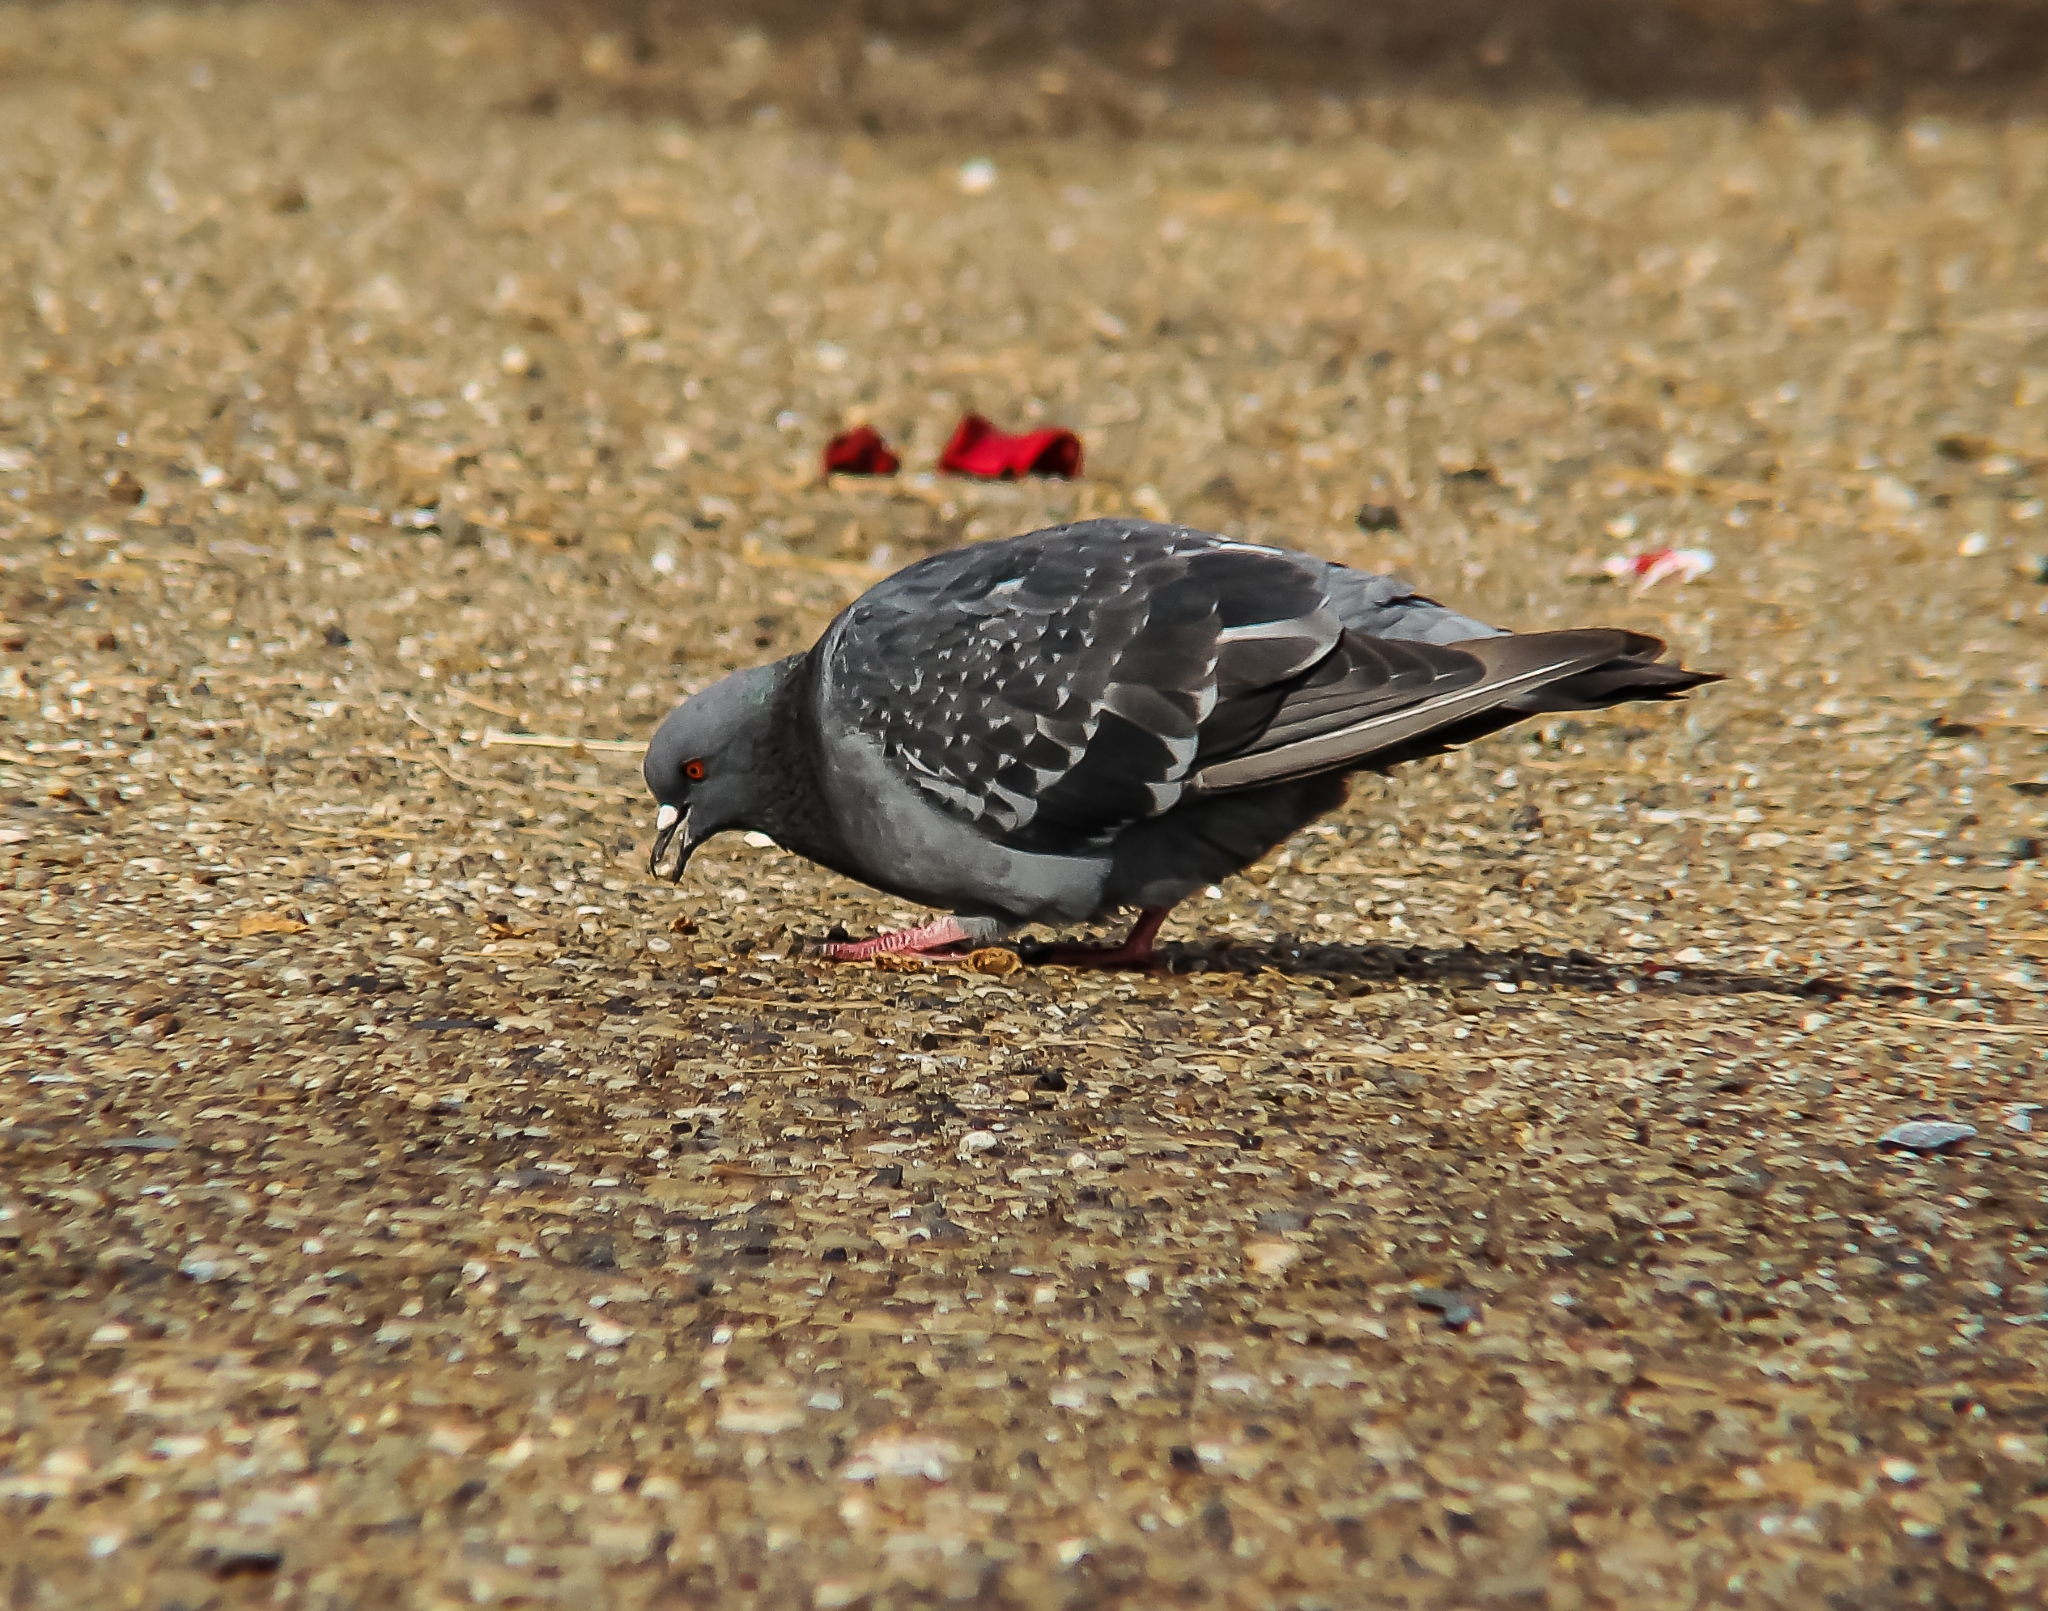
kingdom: Animalia
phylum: Chordata
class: Aves
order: Columbiformes
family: Columbidae
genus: Columba
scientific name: Columba livia
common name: Rock pigeon
